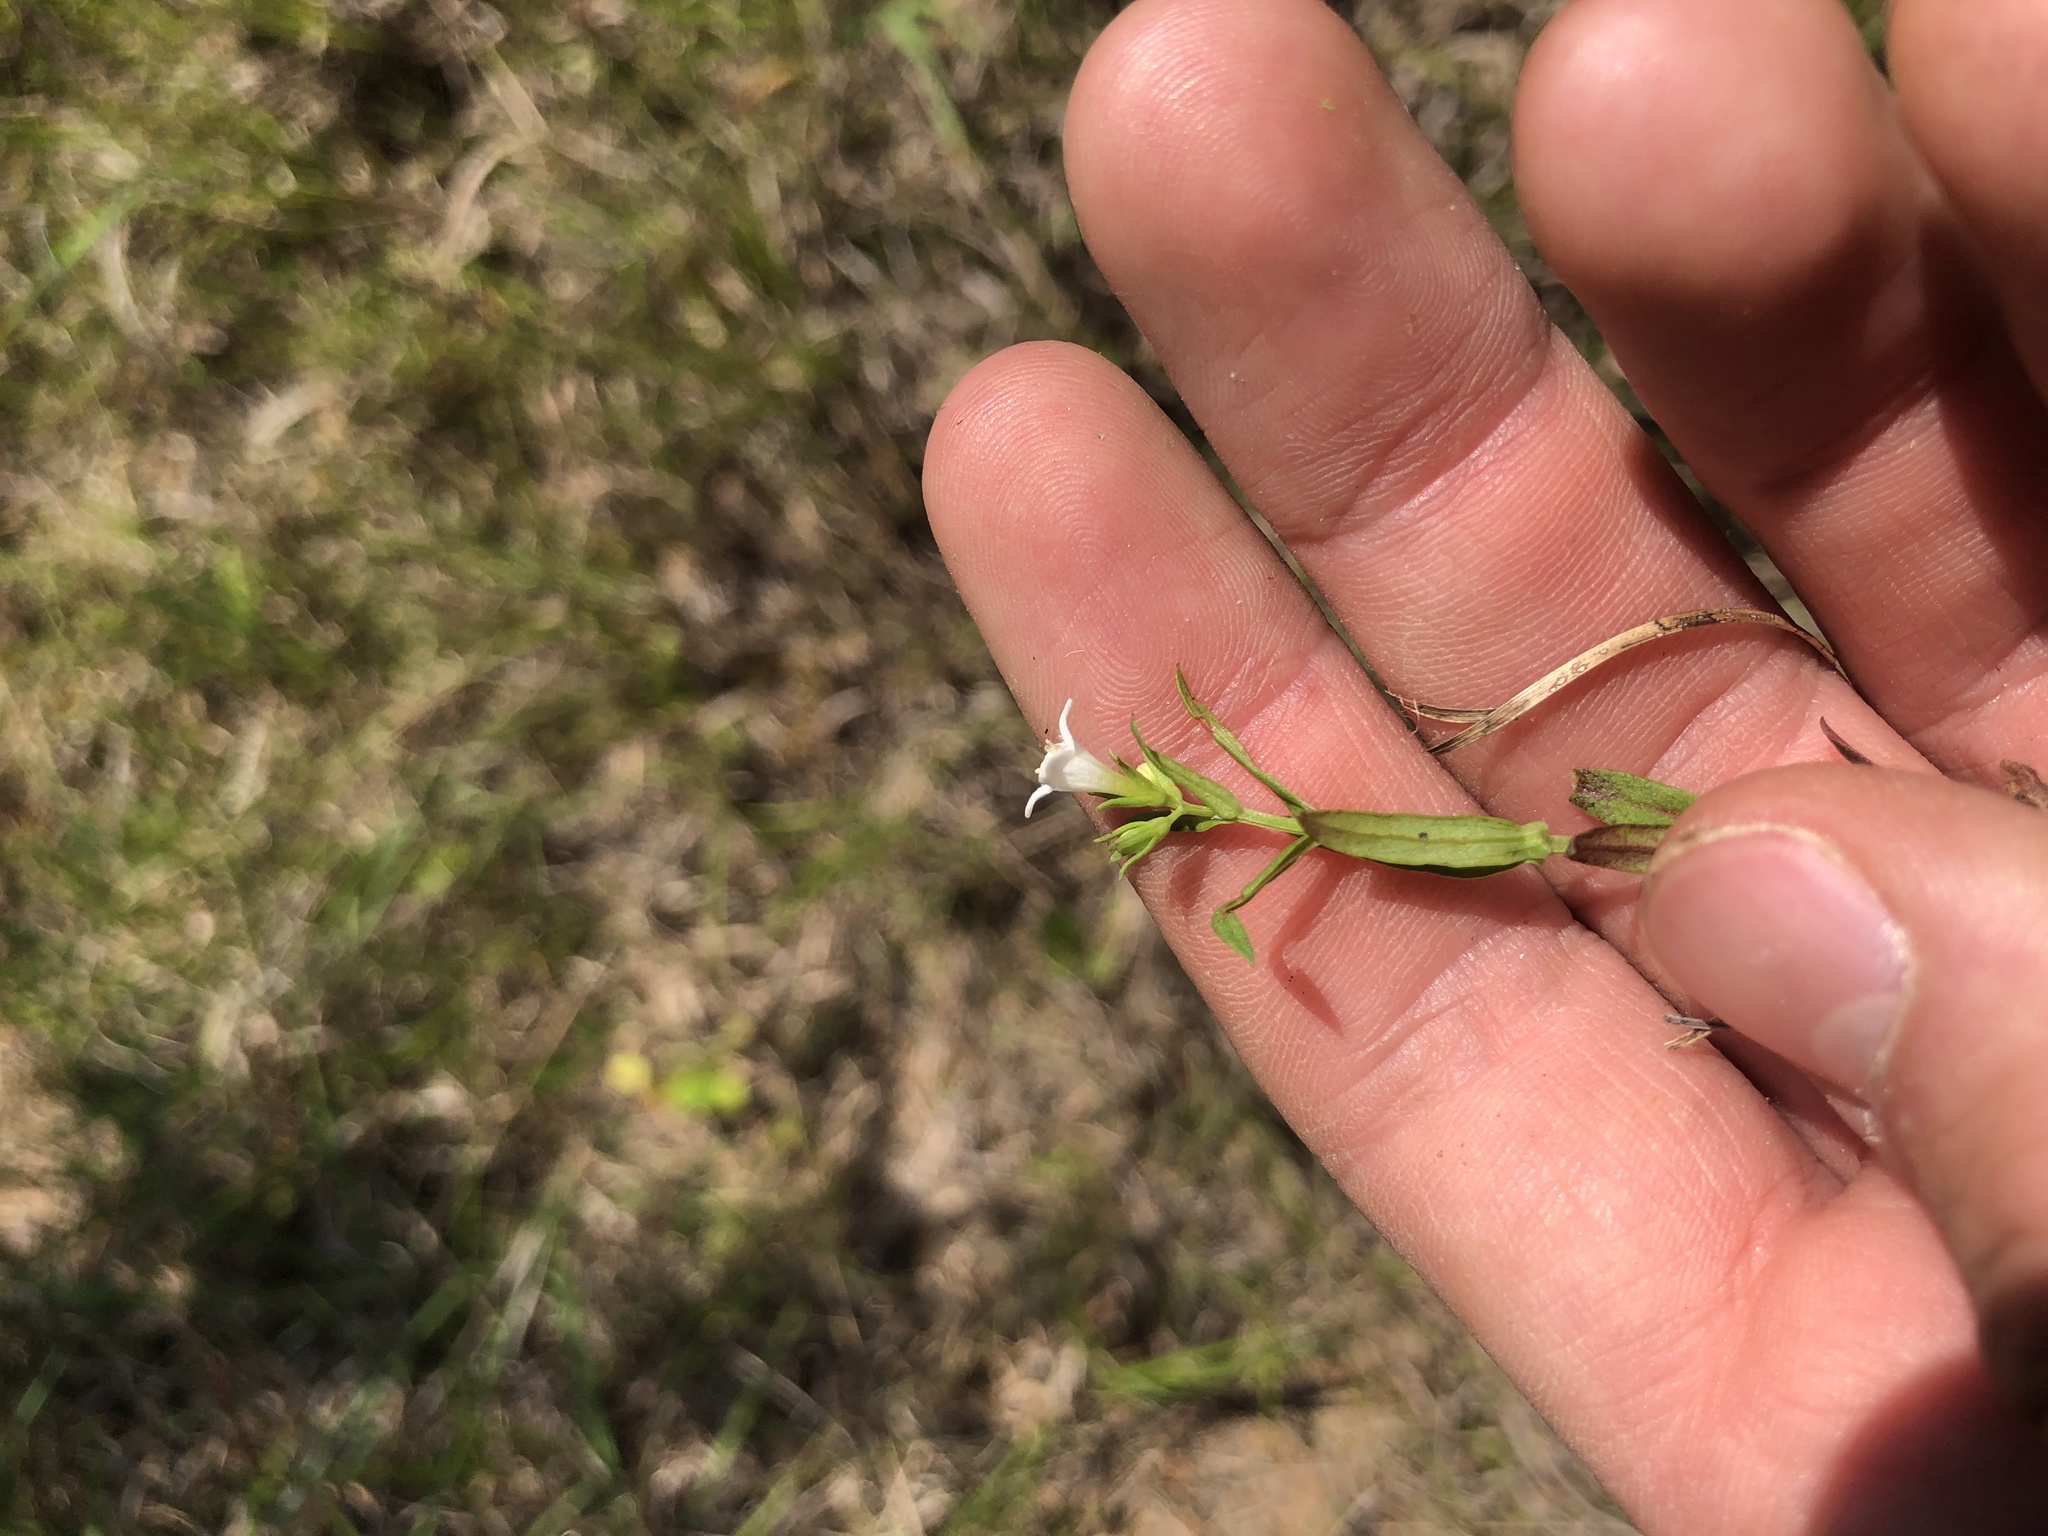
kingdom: Plantae
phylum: Tracheophyta
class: Magnoliopsida
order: Gentianales
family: Rubiaceae
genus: Houstonia
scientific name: Houstonia purpurea
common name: Summer bluet
